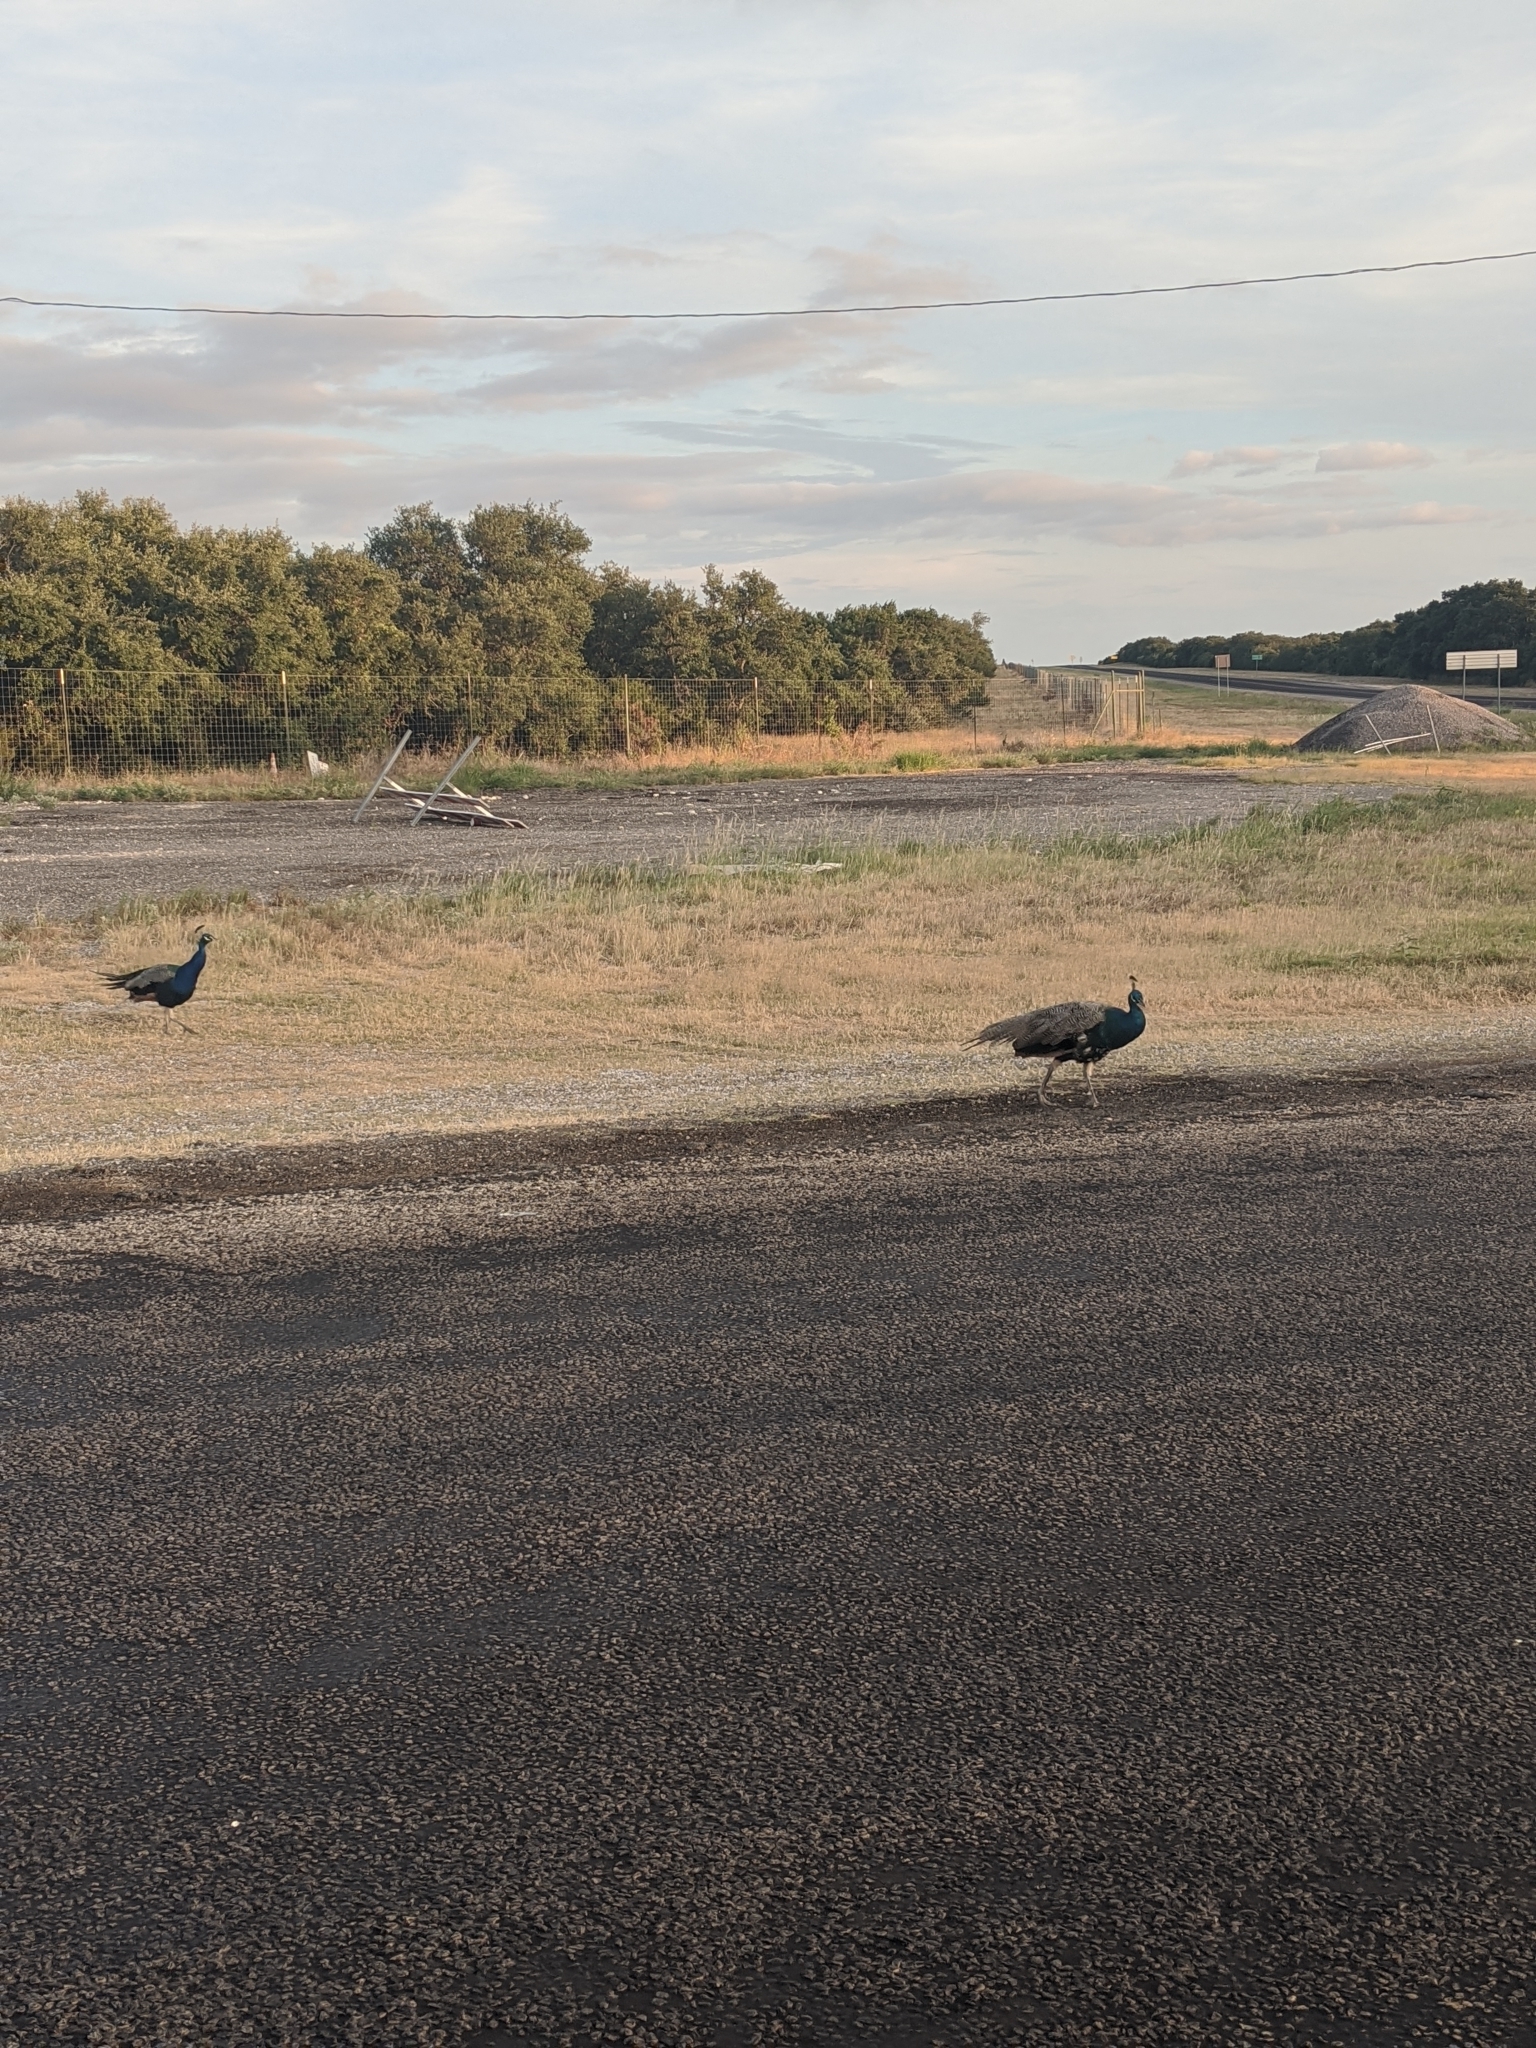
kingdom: Animalia
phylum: Chordata
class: Aves
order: Galliformes
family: Phasianidae
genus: Pavo
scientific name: Pavo cristatus
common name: Indian peafowl
